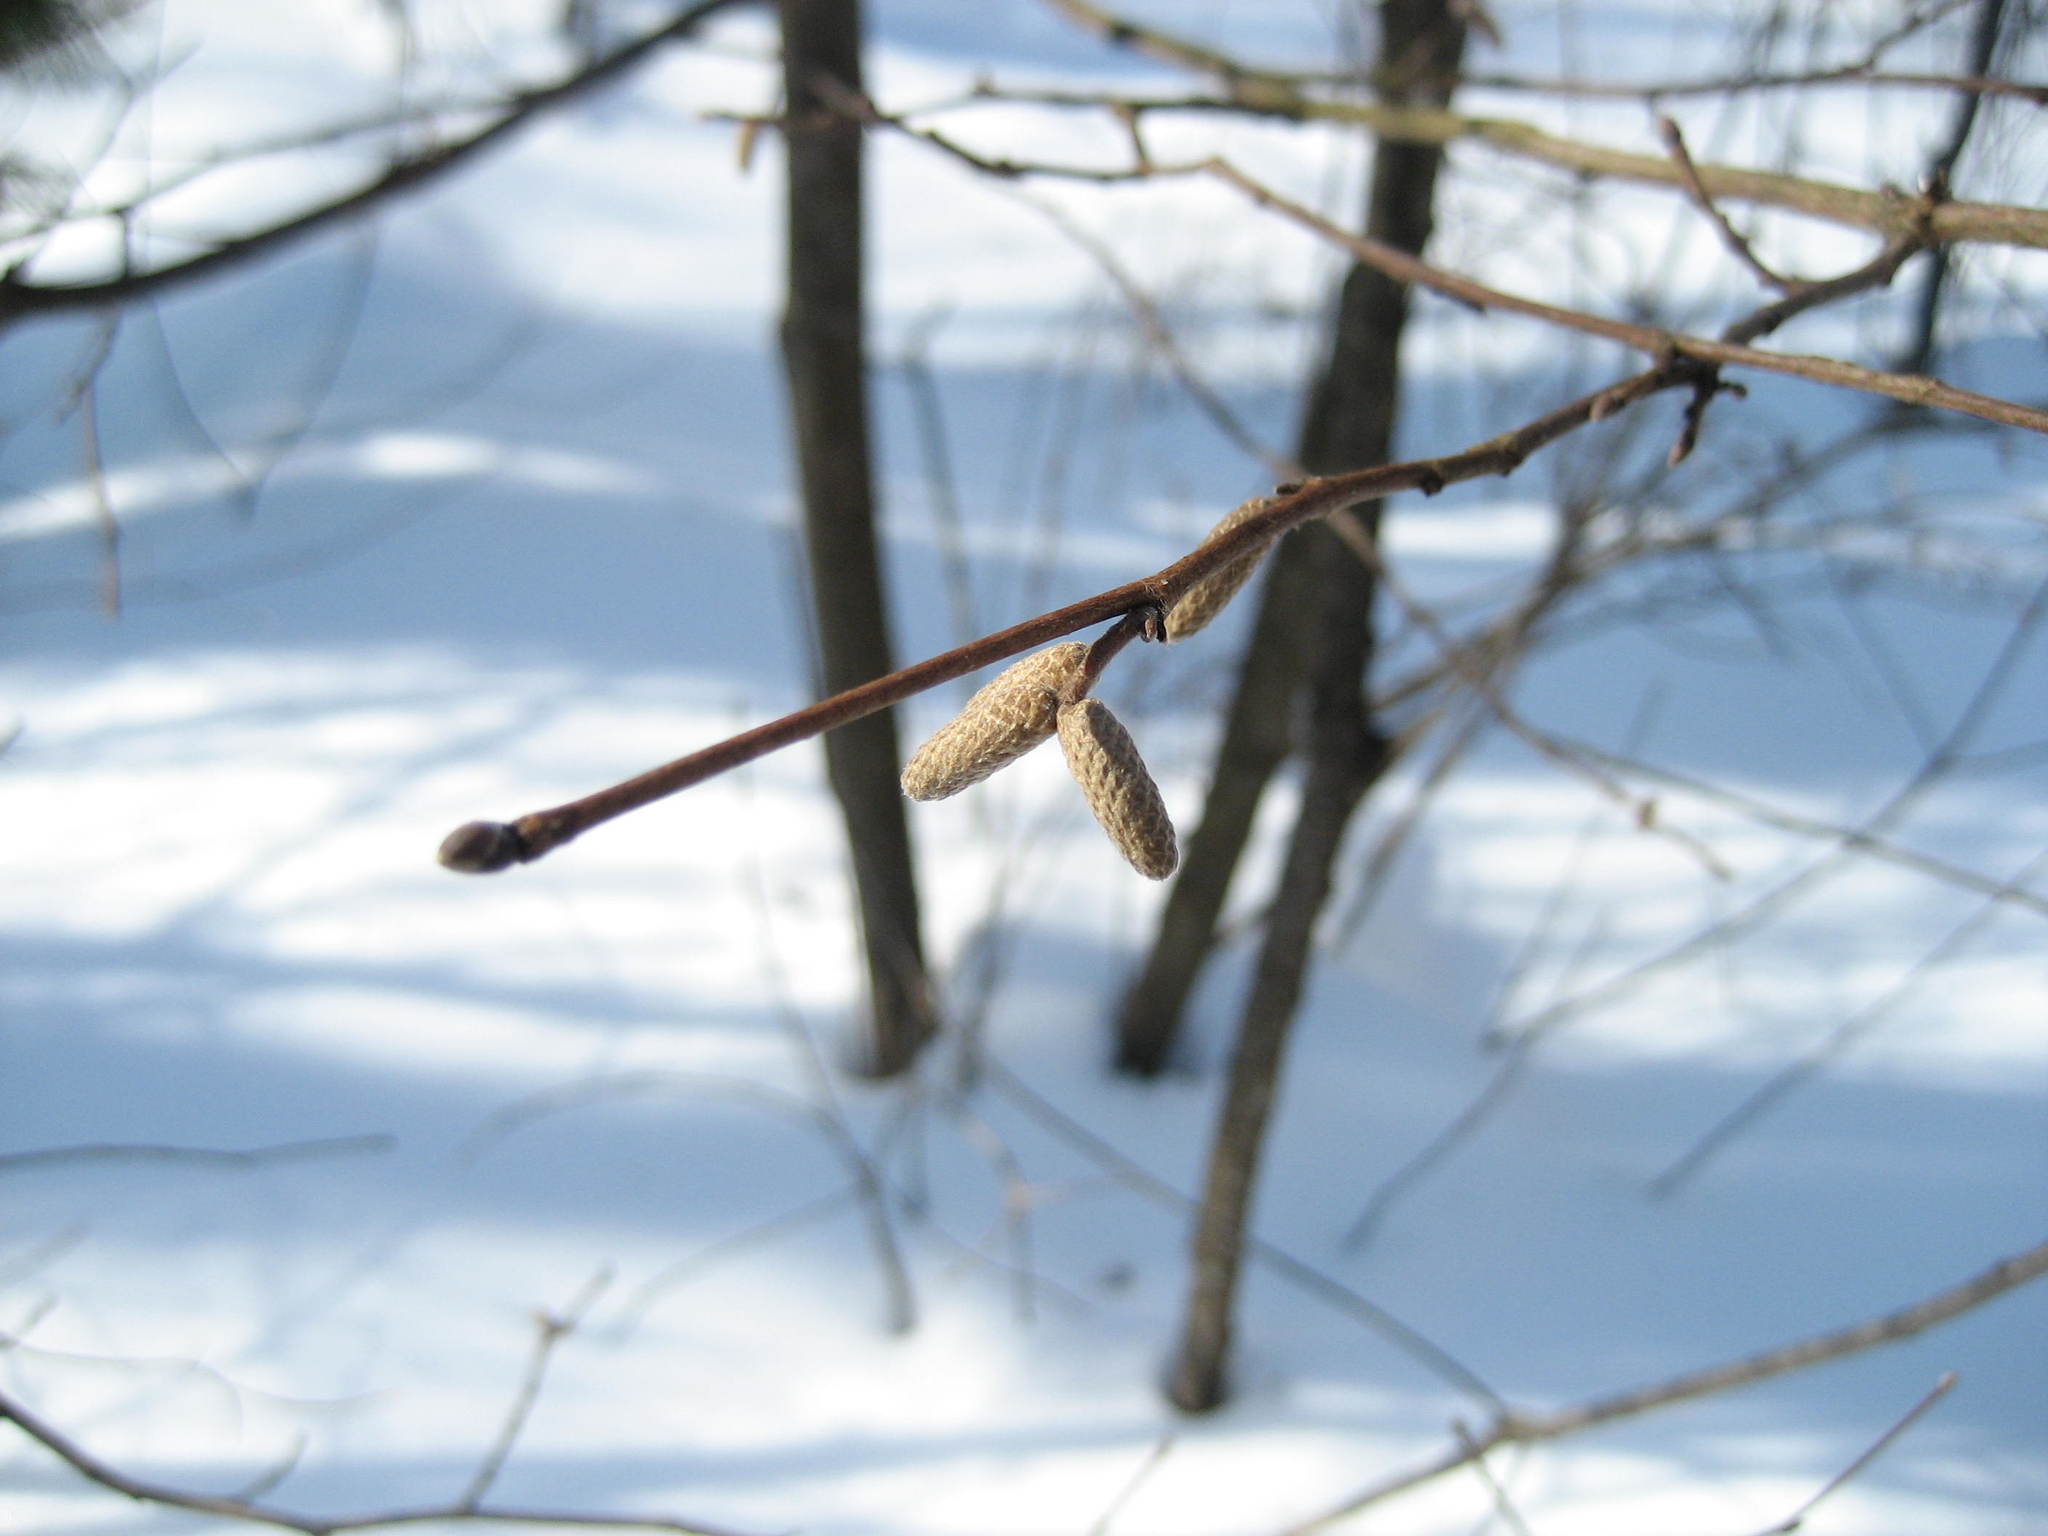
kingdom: Plantae
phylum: Tracheophyta
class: Magnoliopsida
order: Fagales
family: Betulaceae
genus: Corylus
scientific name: Corylus cornuta
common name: Beaked hazel
